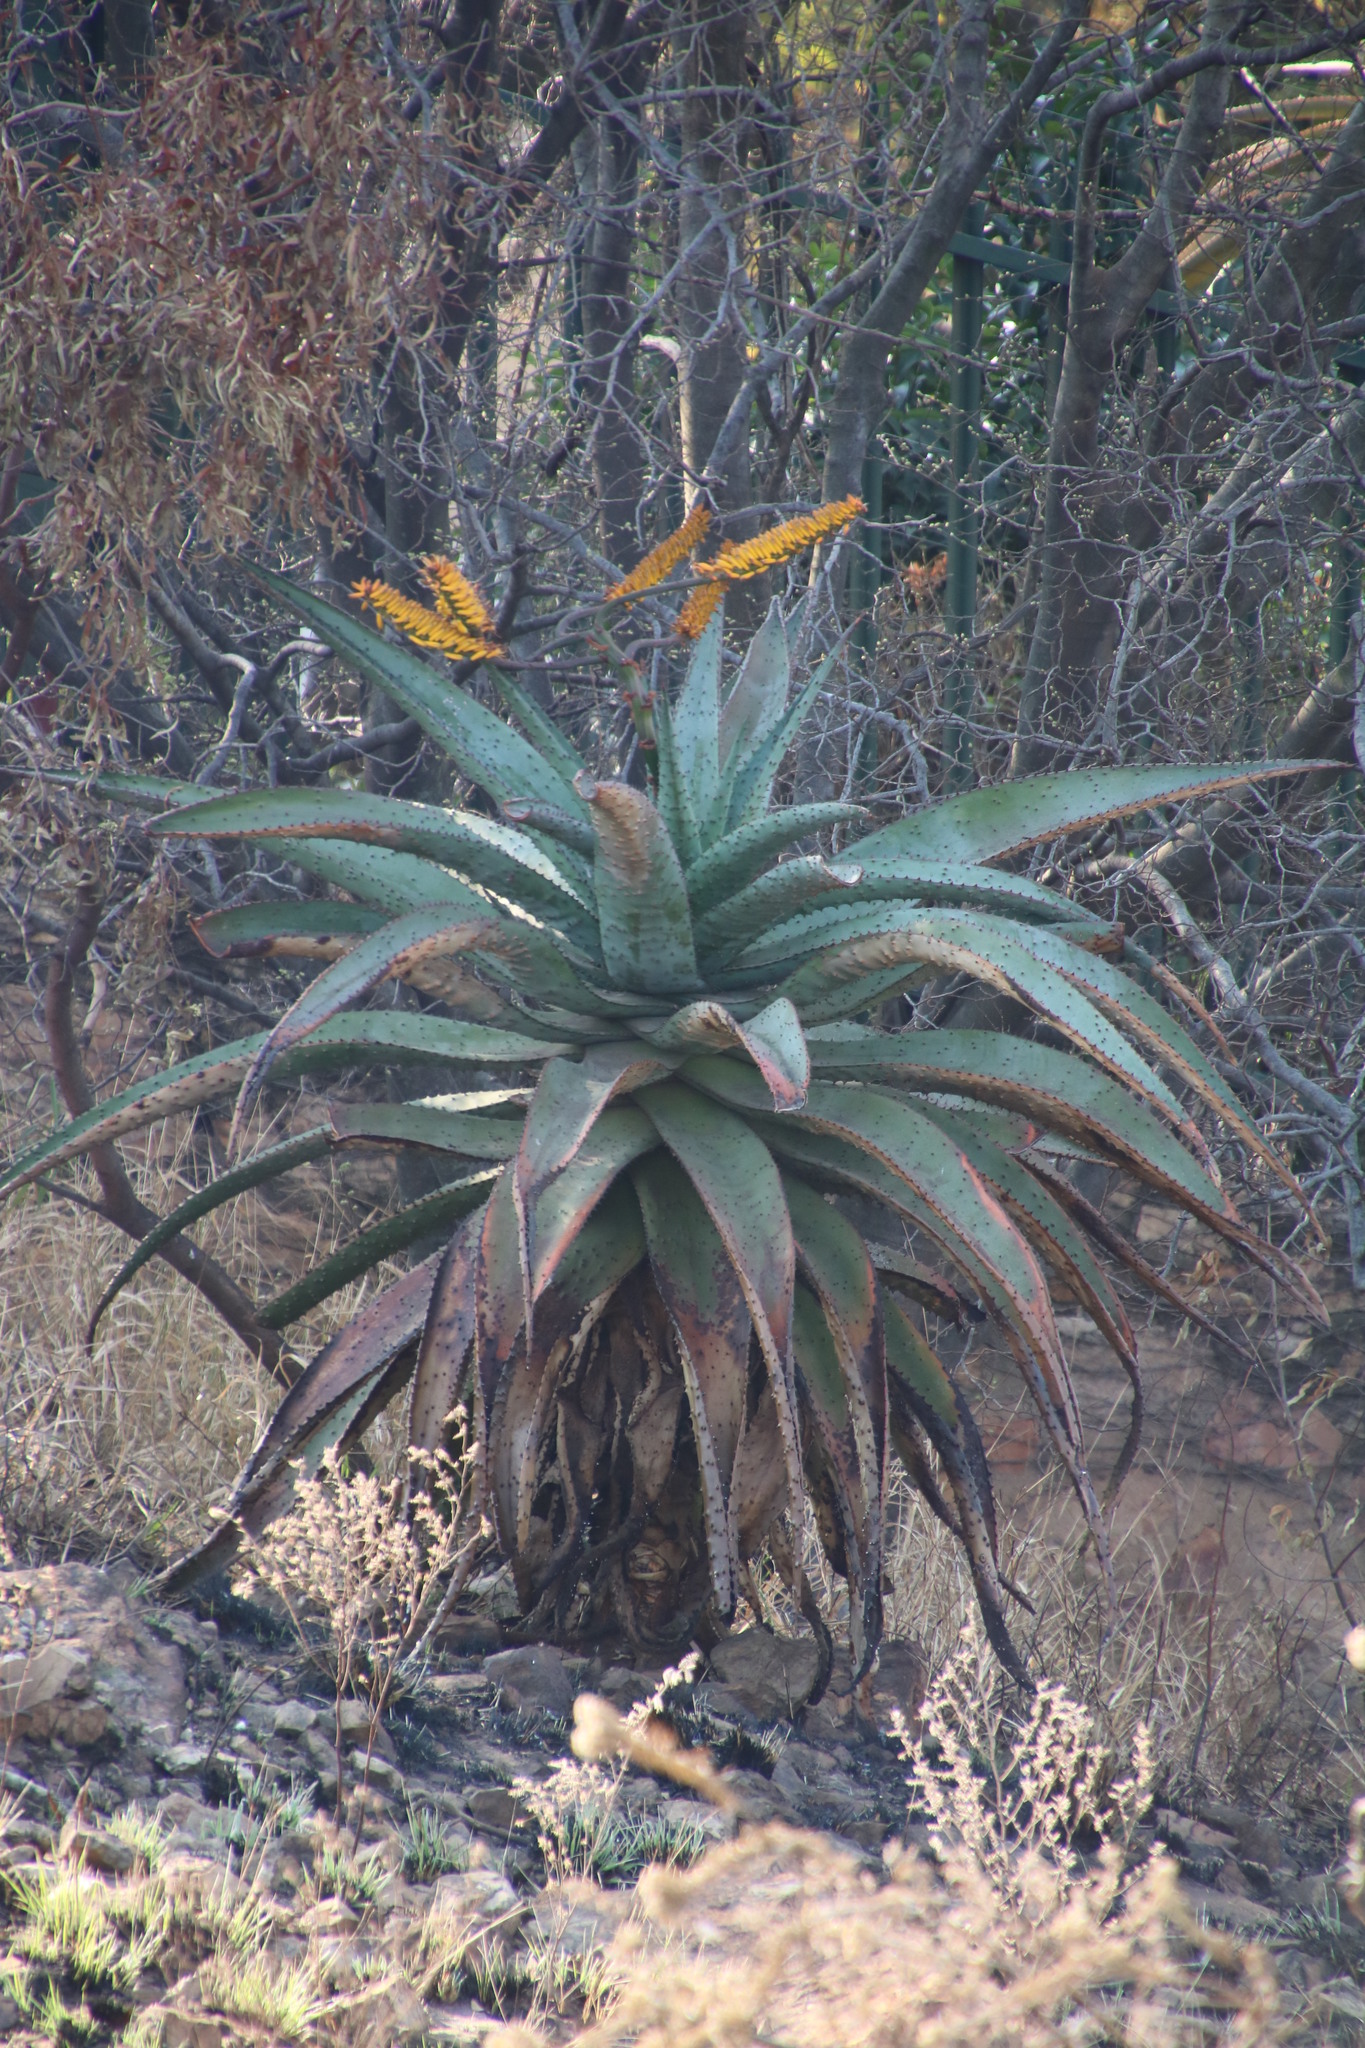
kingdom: Plantae
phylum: Tracheophyta
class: Liliopsida
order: Asparagales
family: Asphodelaceae
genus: Aloe
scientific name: Aloe marlothii
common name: Flat-flowered aloe
